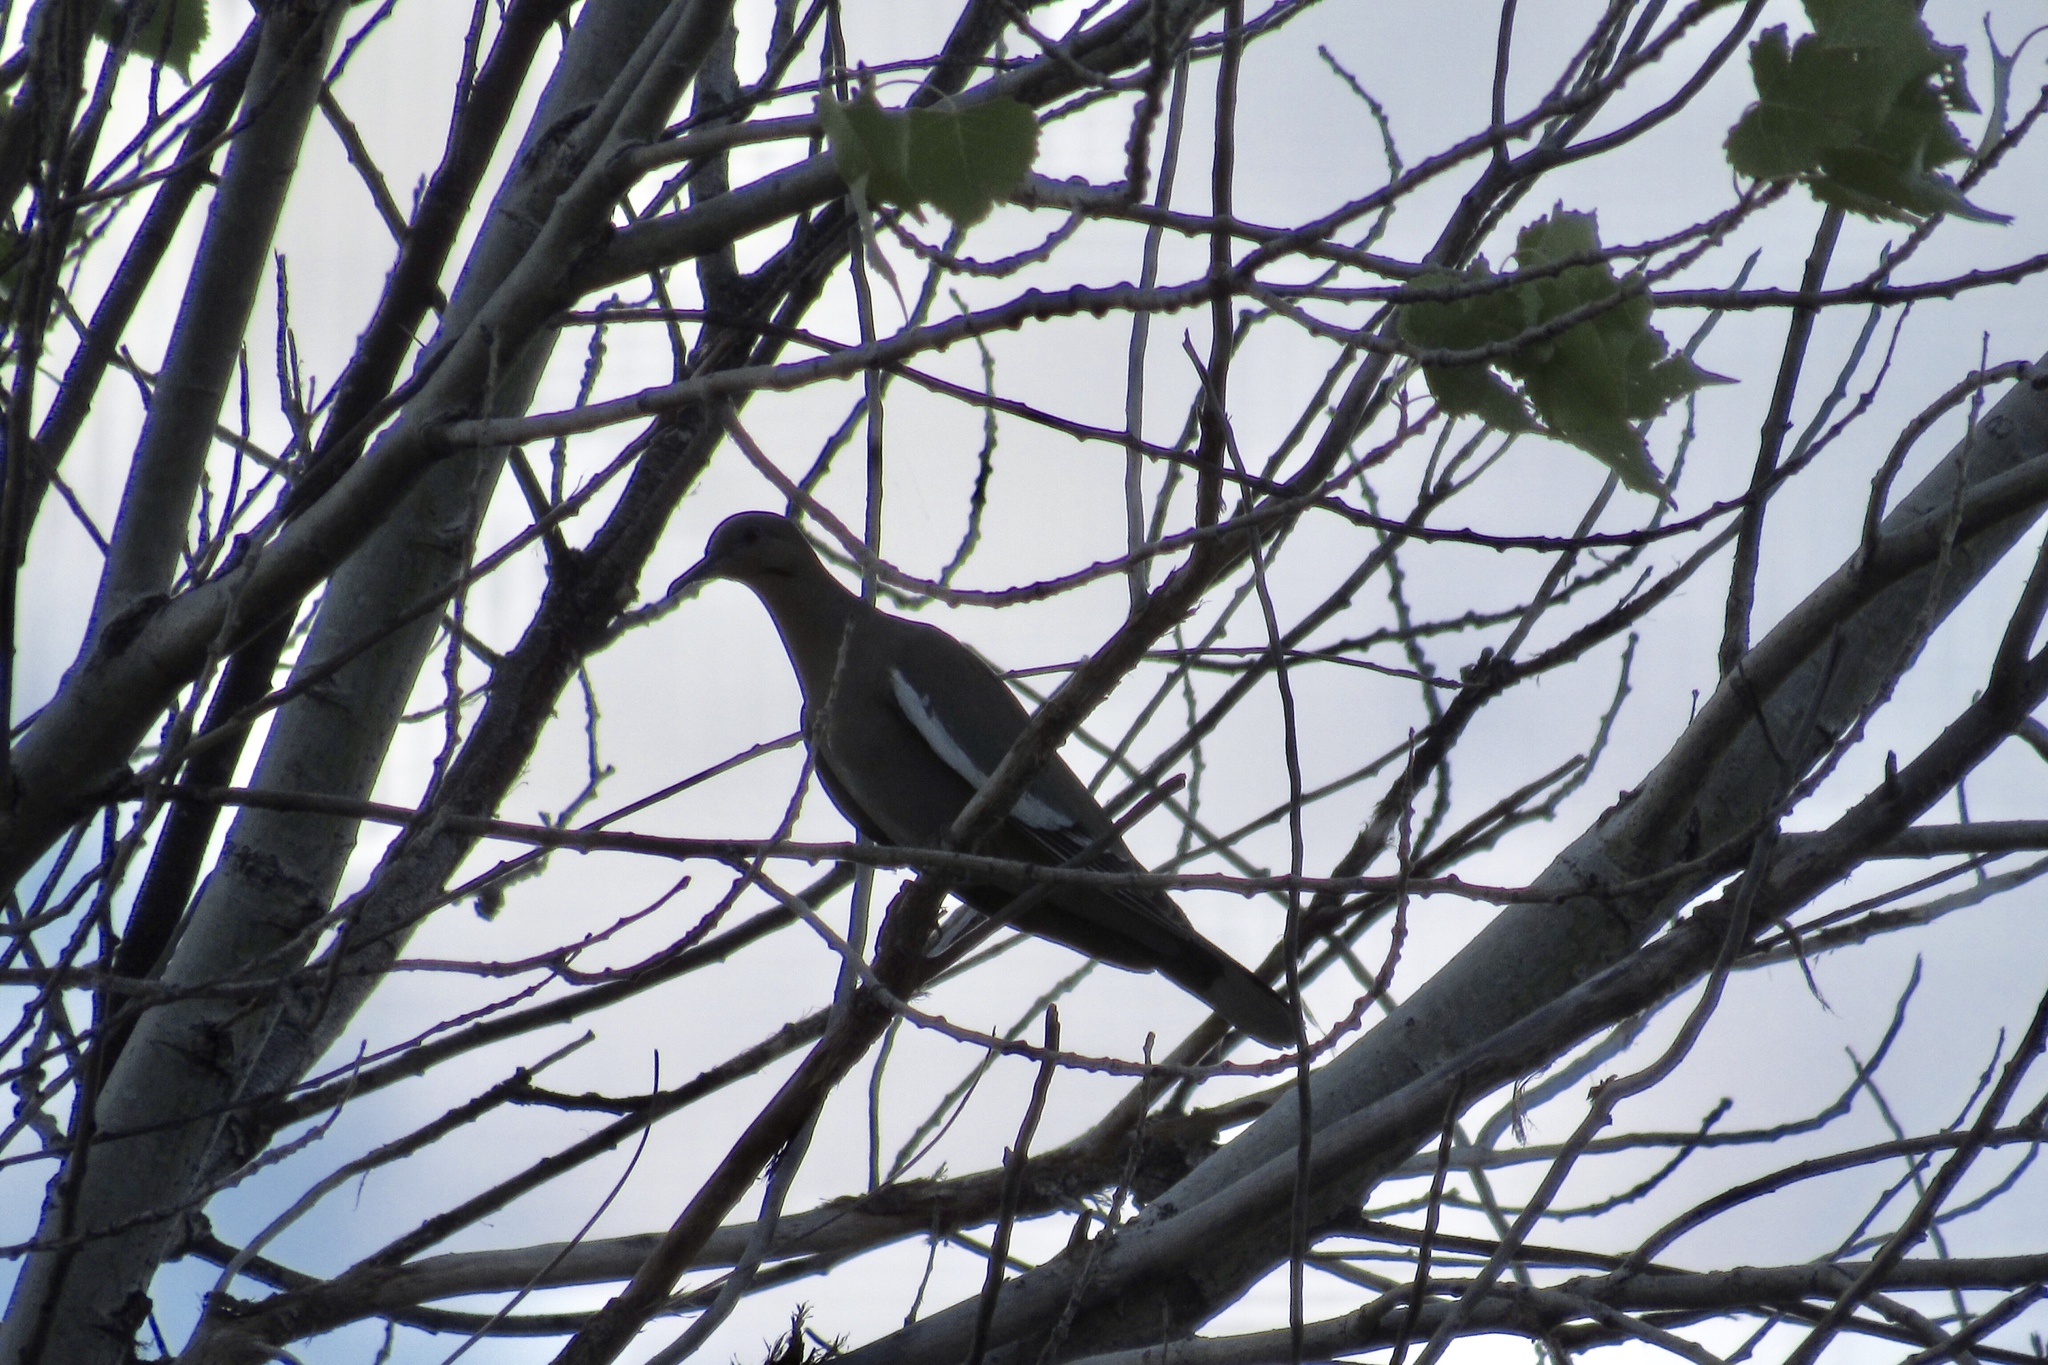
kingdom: Animalia
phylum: Chordata
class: Aves
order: Columbiformes
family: Columbidae
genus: Zenaida
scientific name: Zenaida asiatica
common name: White-winged dove
